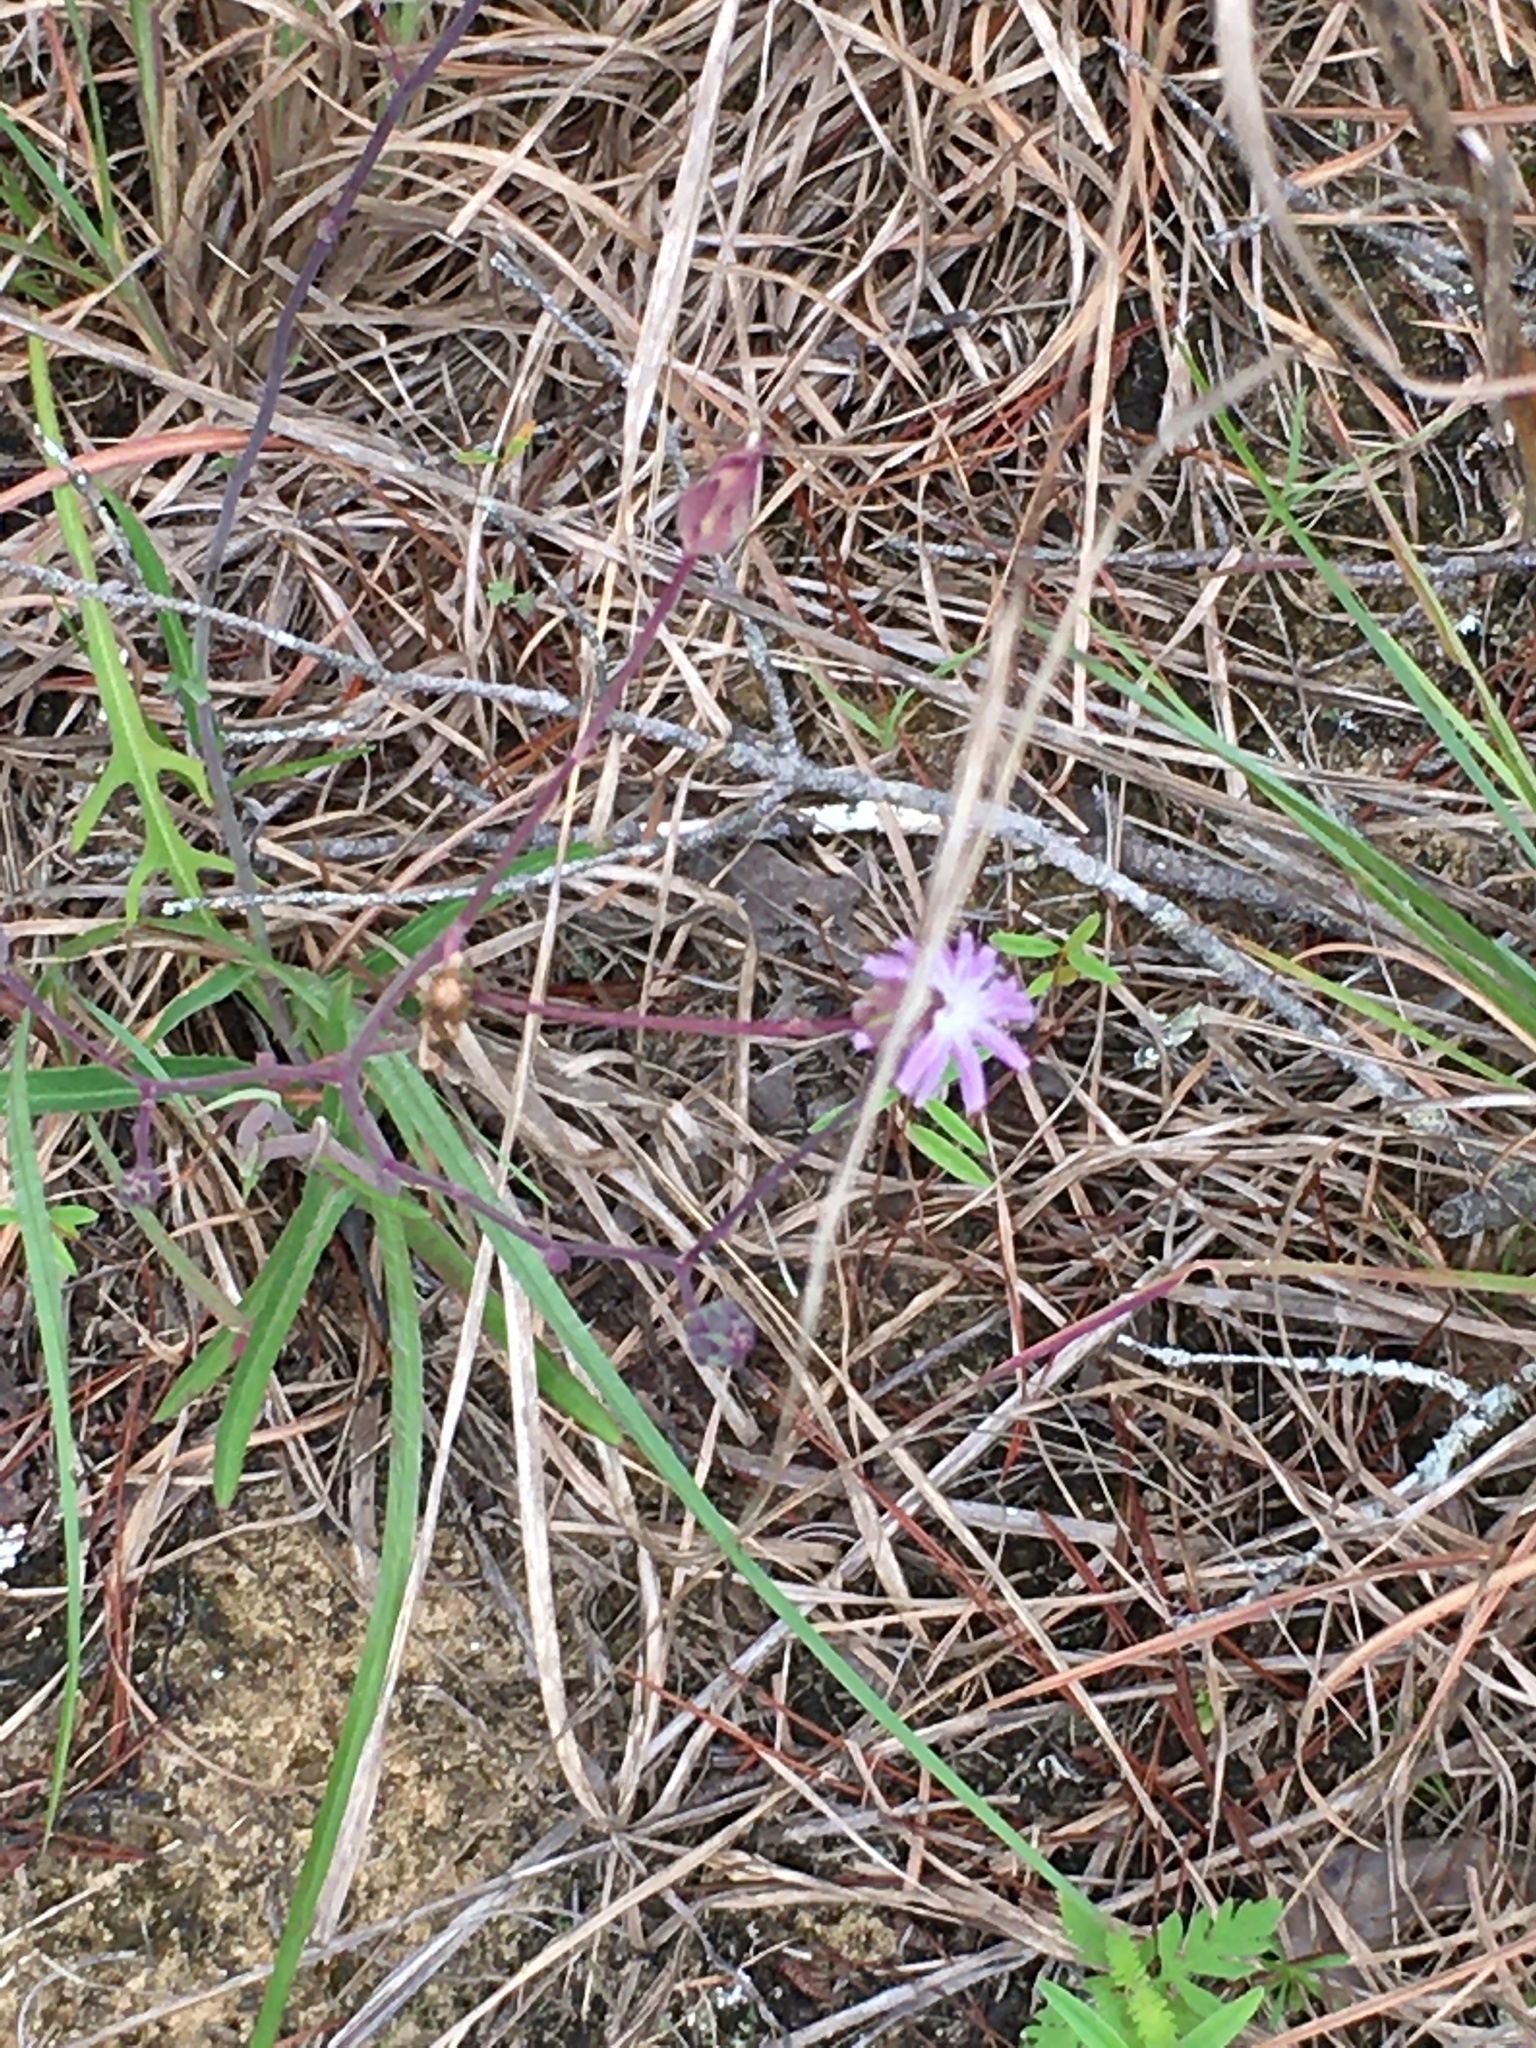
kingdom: Plantae
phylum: Tracheophyta
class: Magnoliopsida
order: Asterales
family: Asteraceae
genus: Lactuca
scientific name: Lactuca graminifolia
